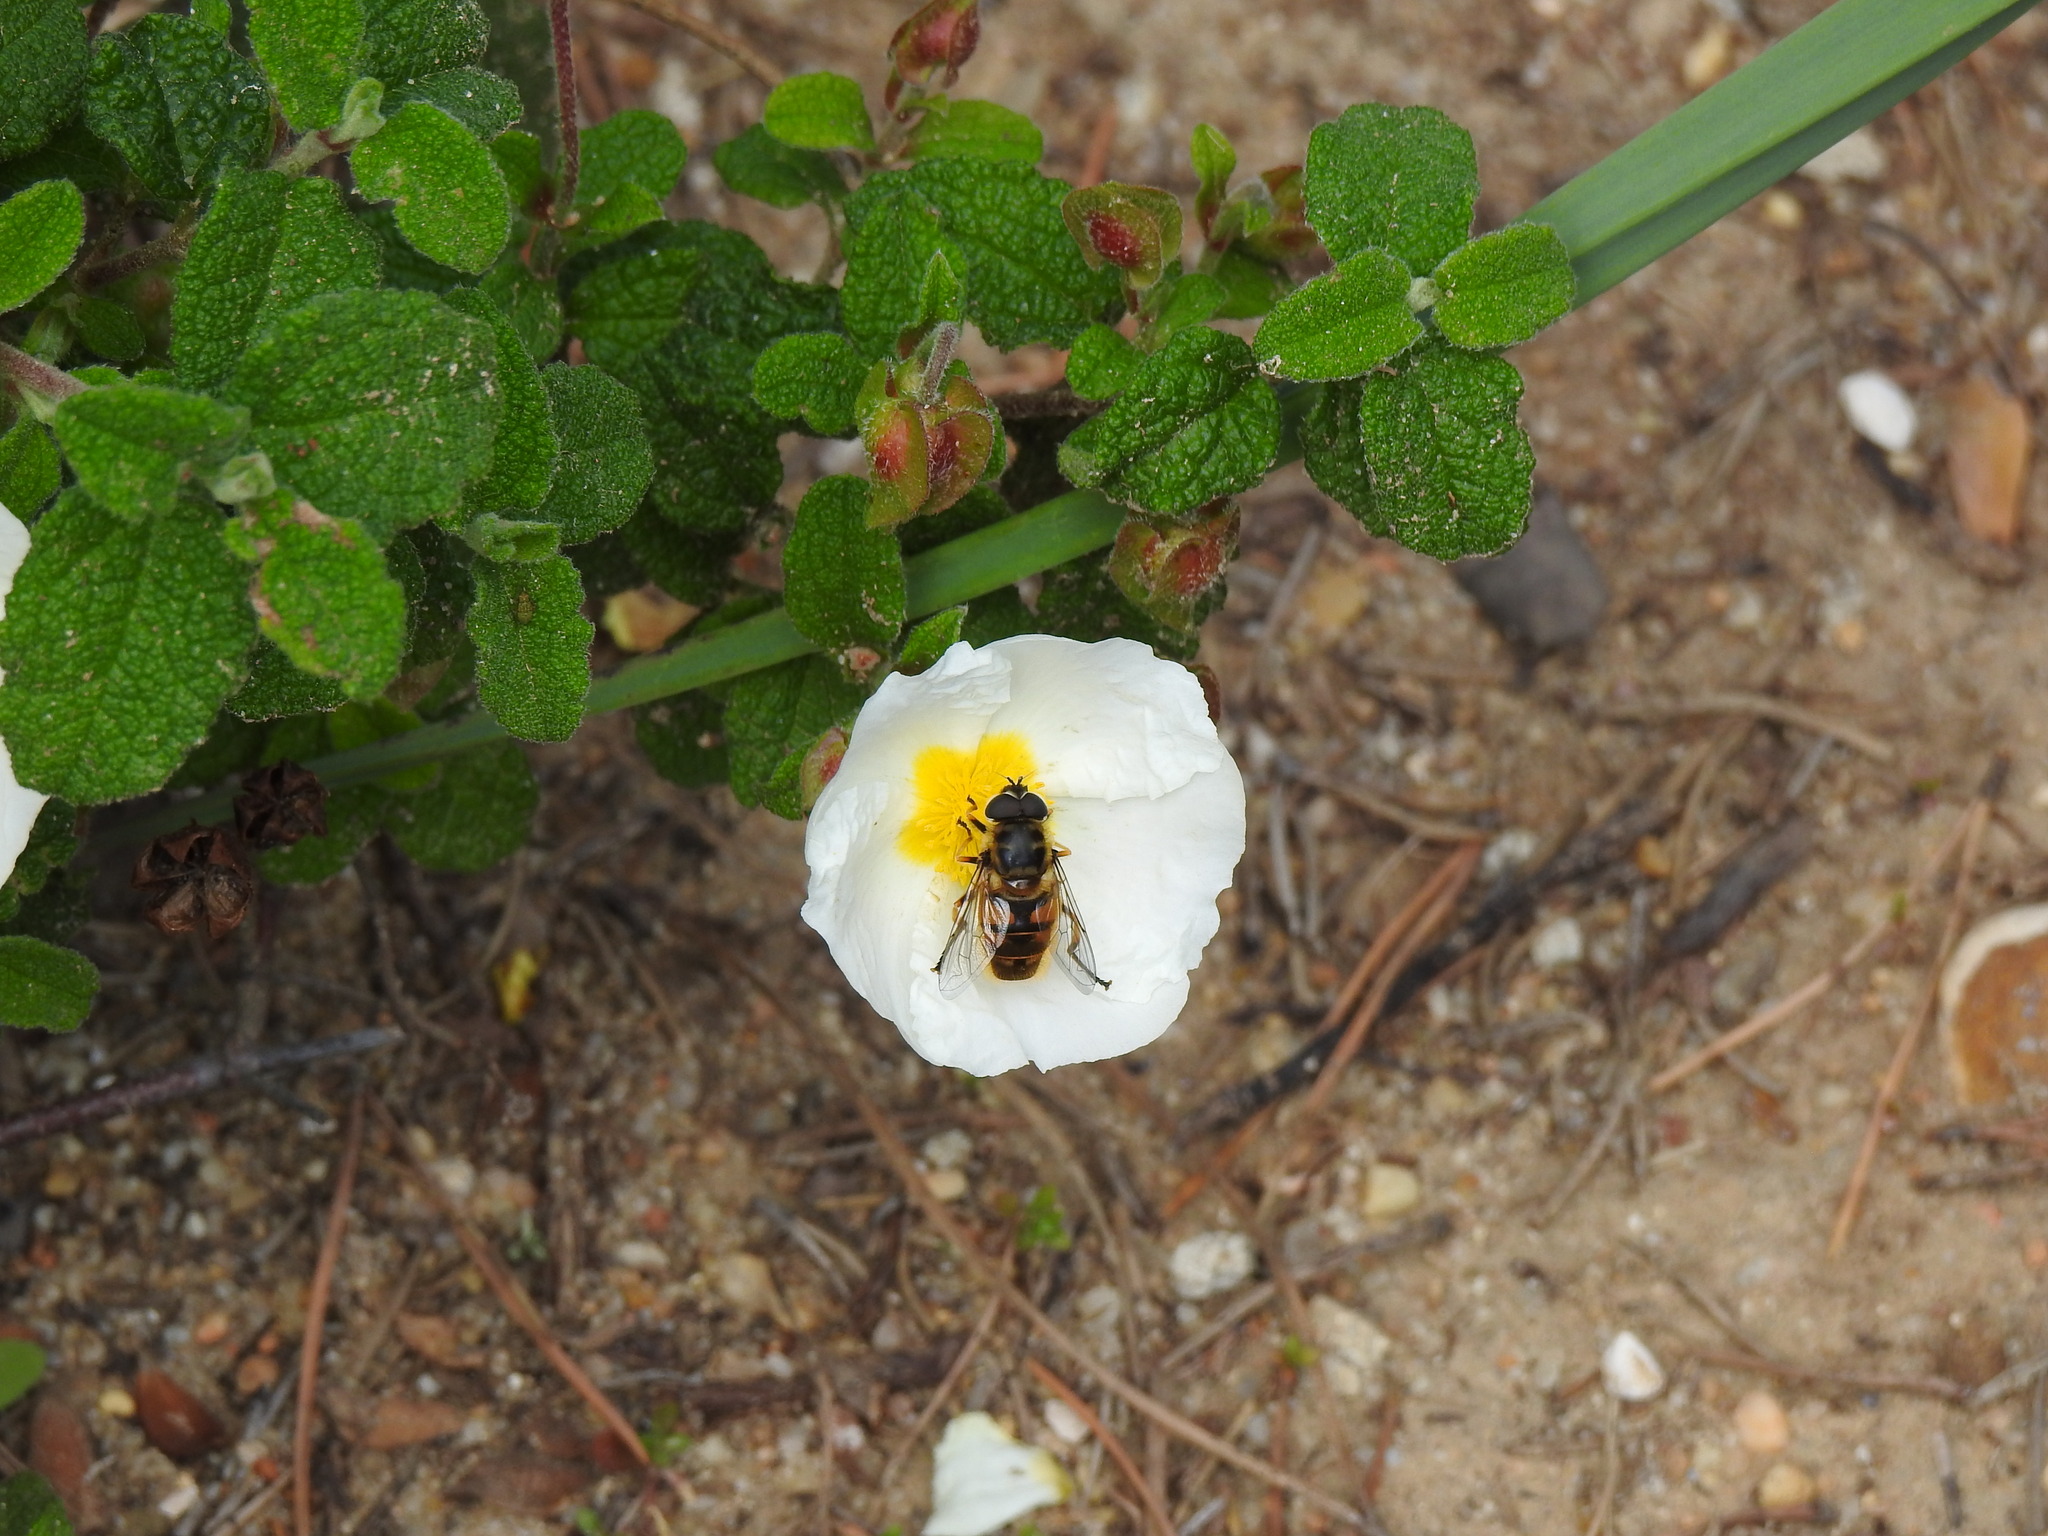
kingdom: Animalia
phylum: Arthropoda
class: Insecta
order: Diptera
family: Syrphidae
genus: Myathropa
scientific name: Myathropa florea
